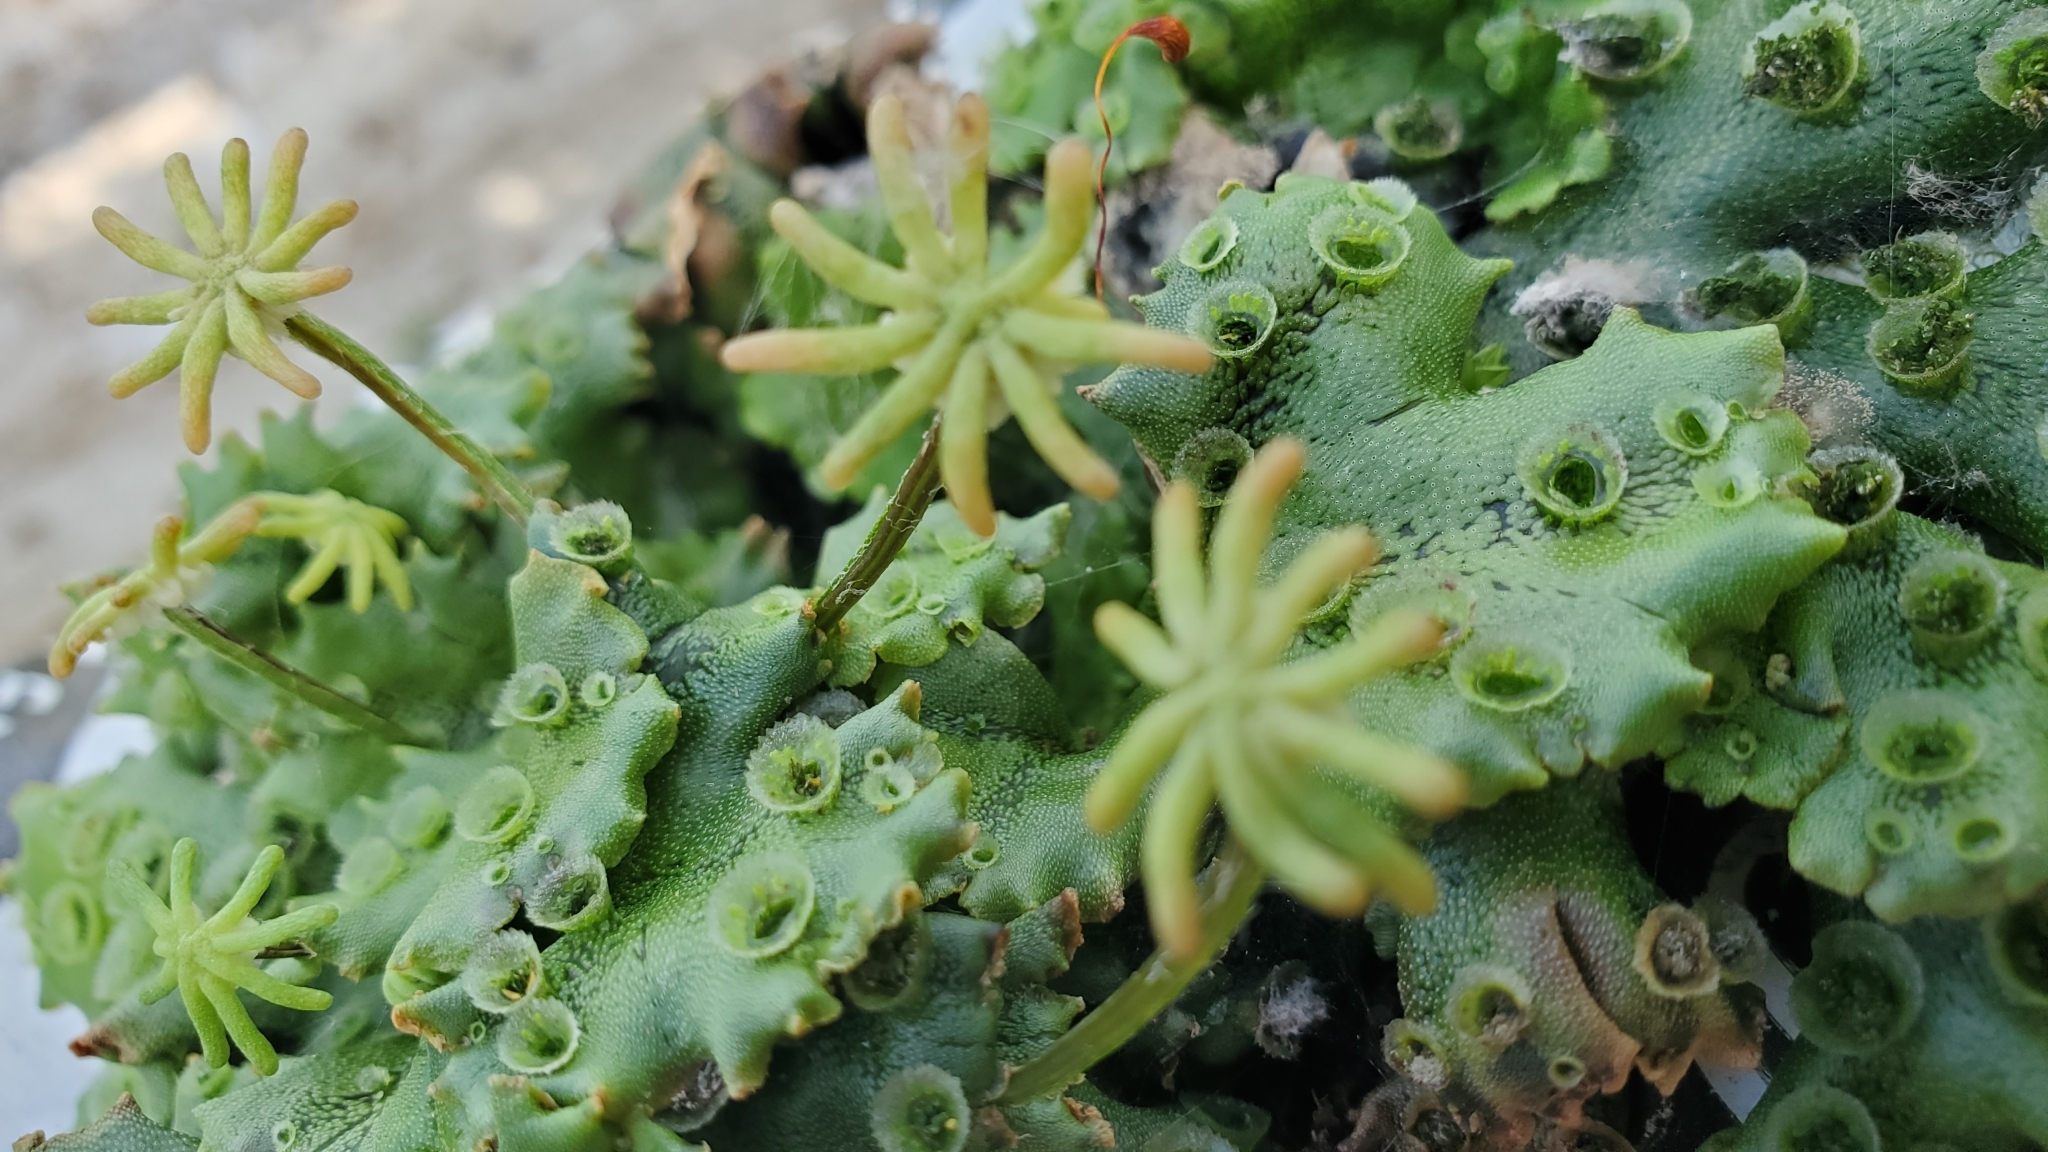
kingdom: Plantae
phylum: Marchantiophyta
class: Marchantiopsida
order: Marchantiales
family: Marchantiaceae
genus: Marchantia
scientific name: Marchantia polymorpha
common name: Common liverwort
